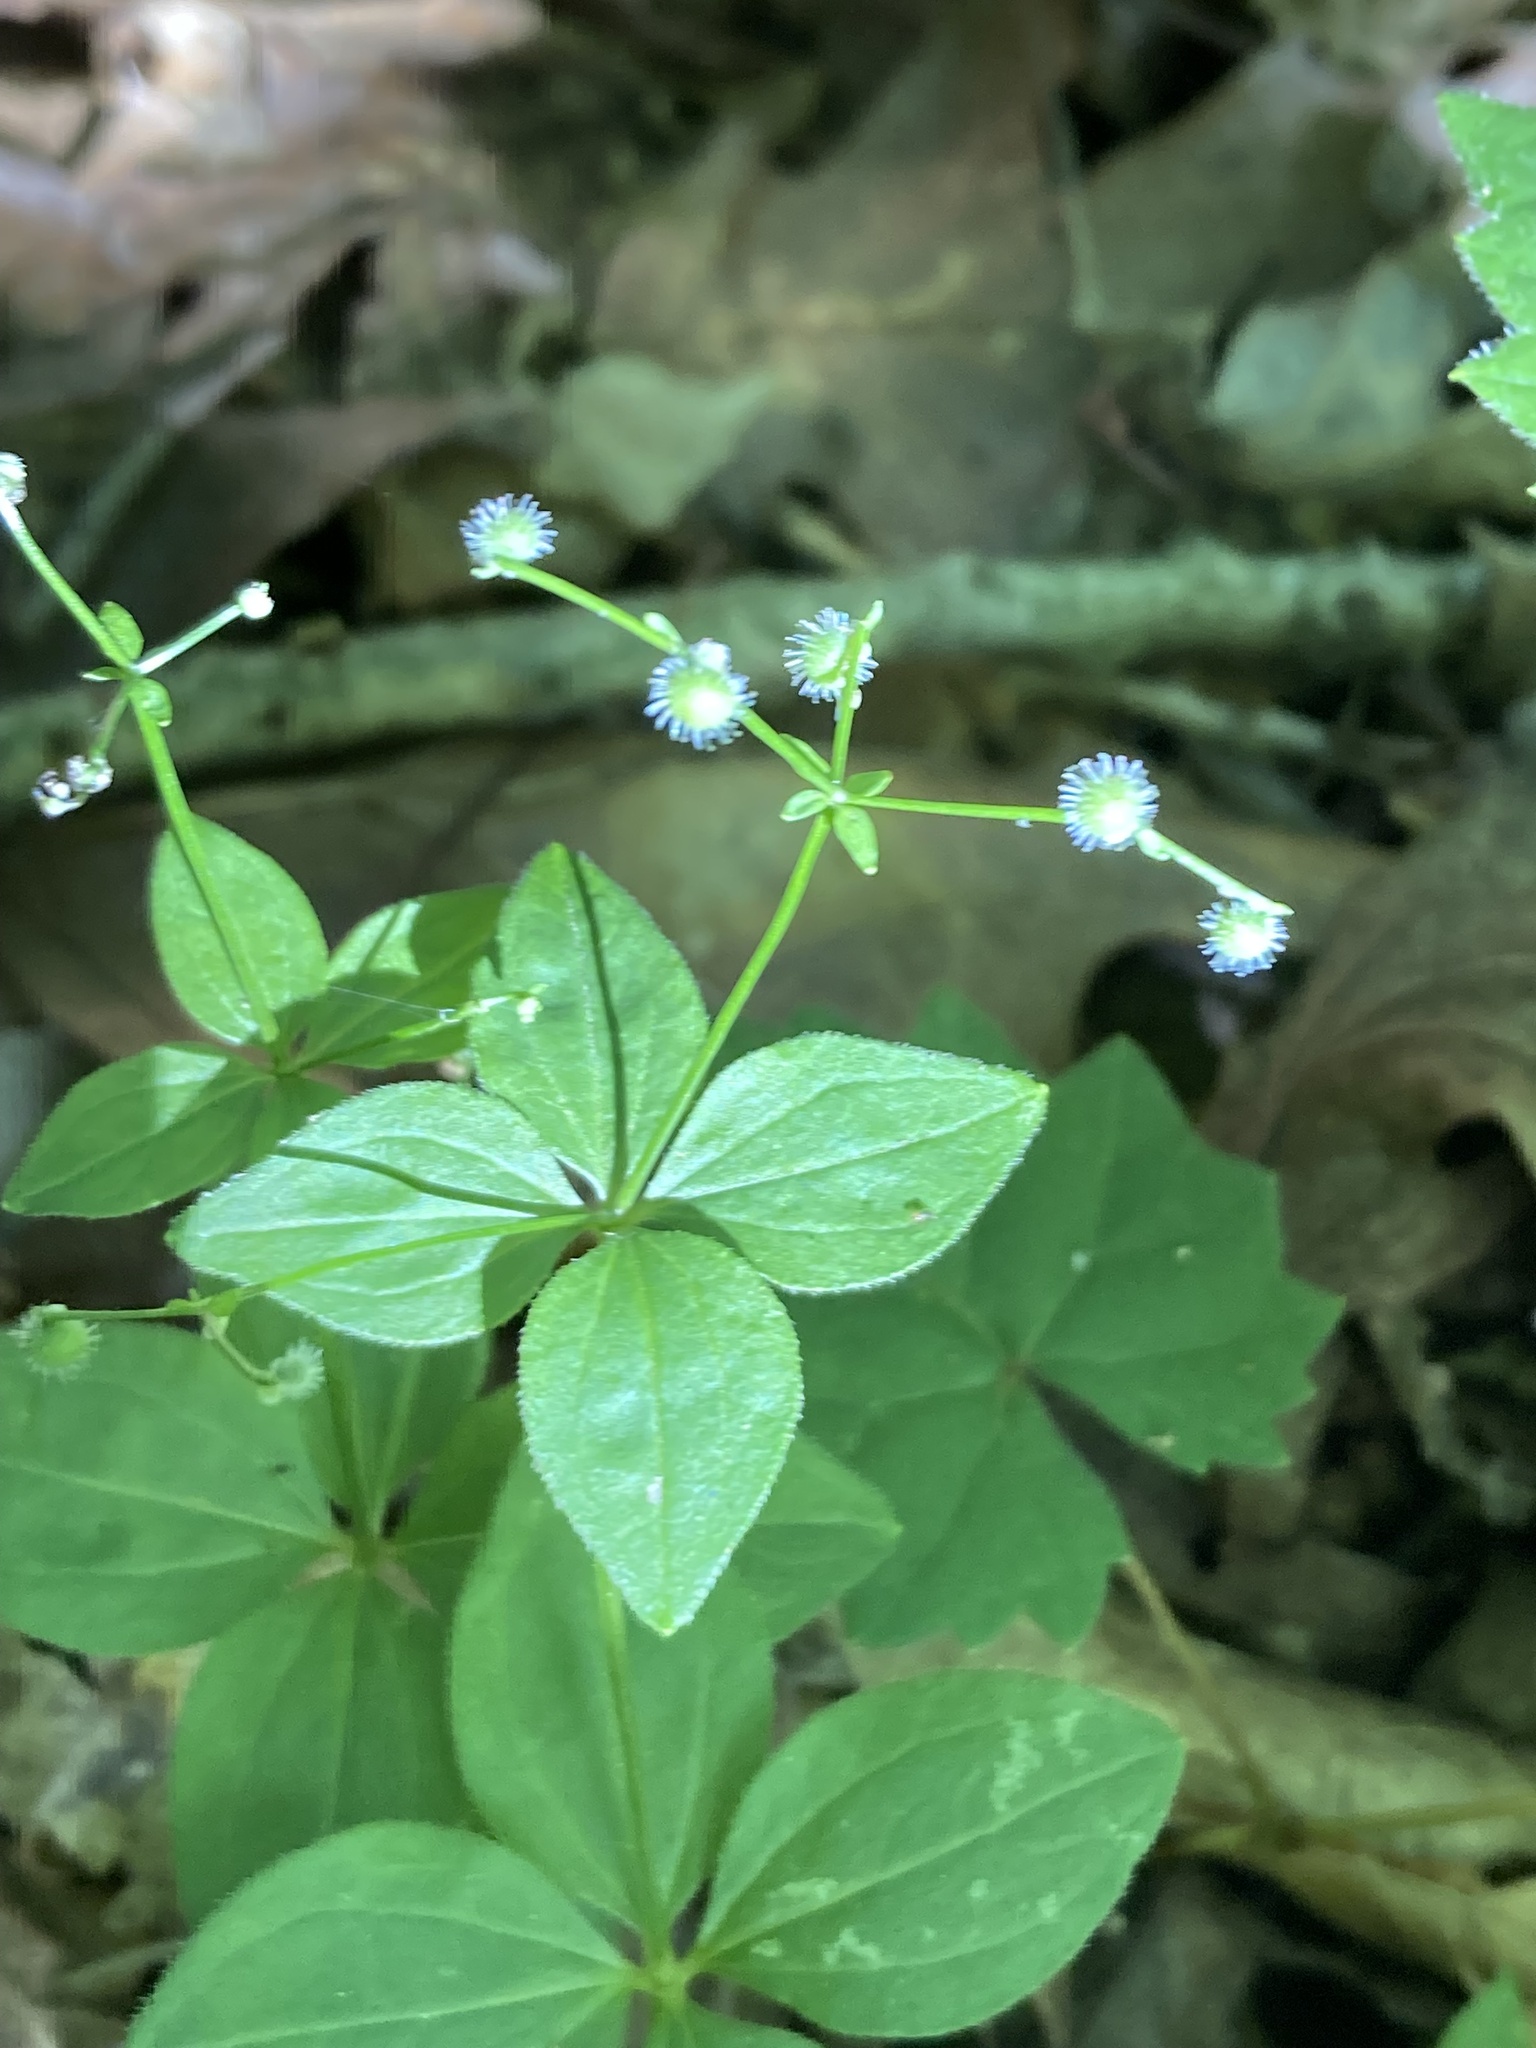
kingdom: Plantae
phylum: Tracheophyta
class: Magnoliopsida
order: Gentianales
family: Rubiaceae
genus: Galium
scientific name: Galium circaezans
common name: Forest bedstraw
